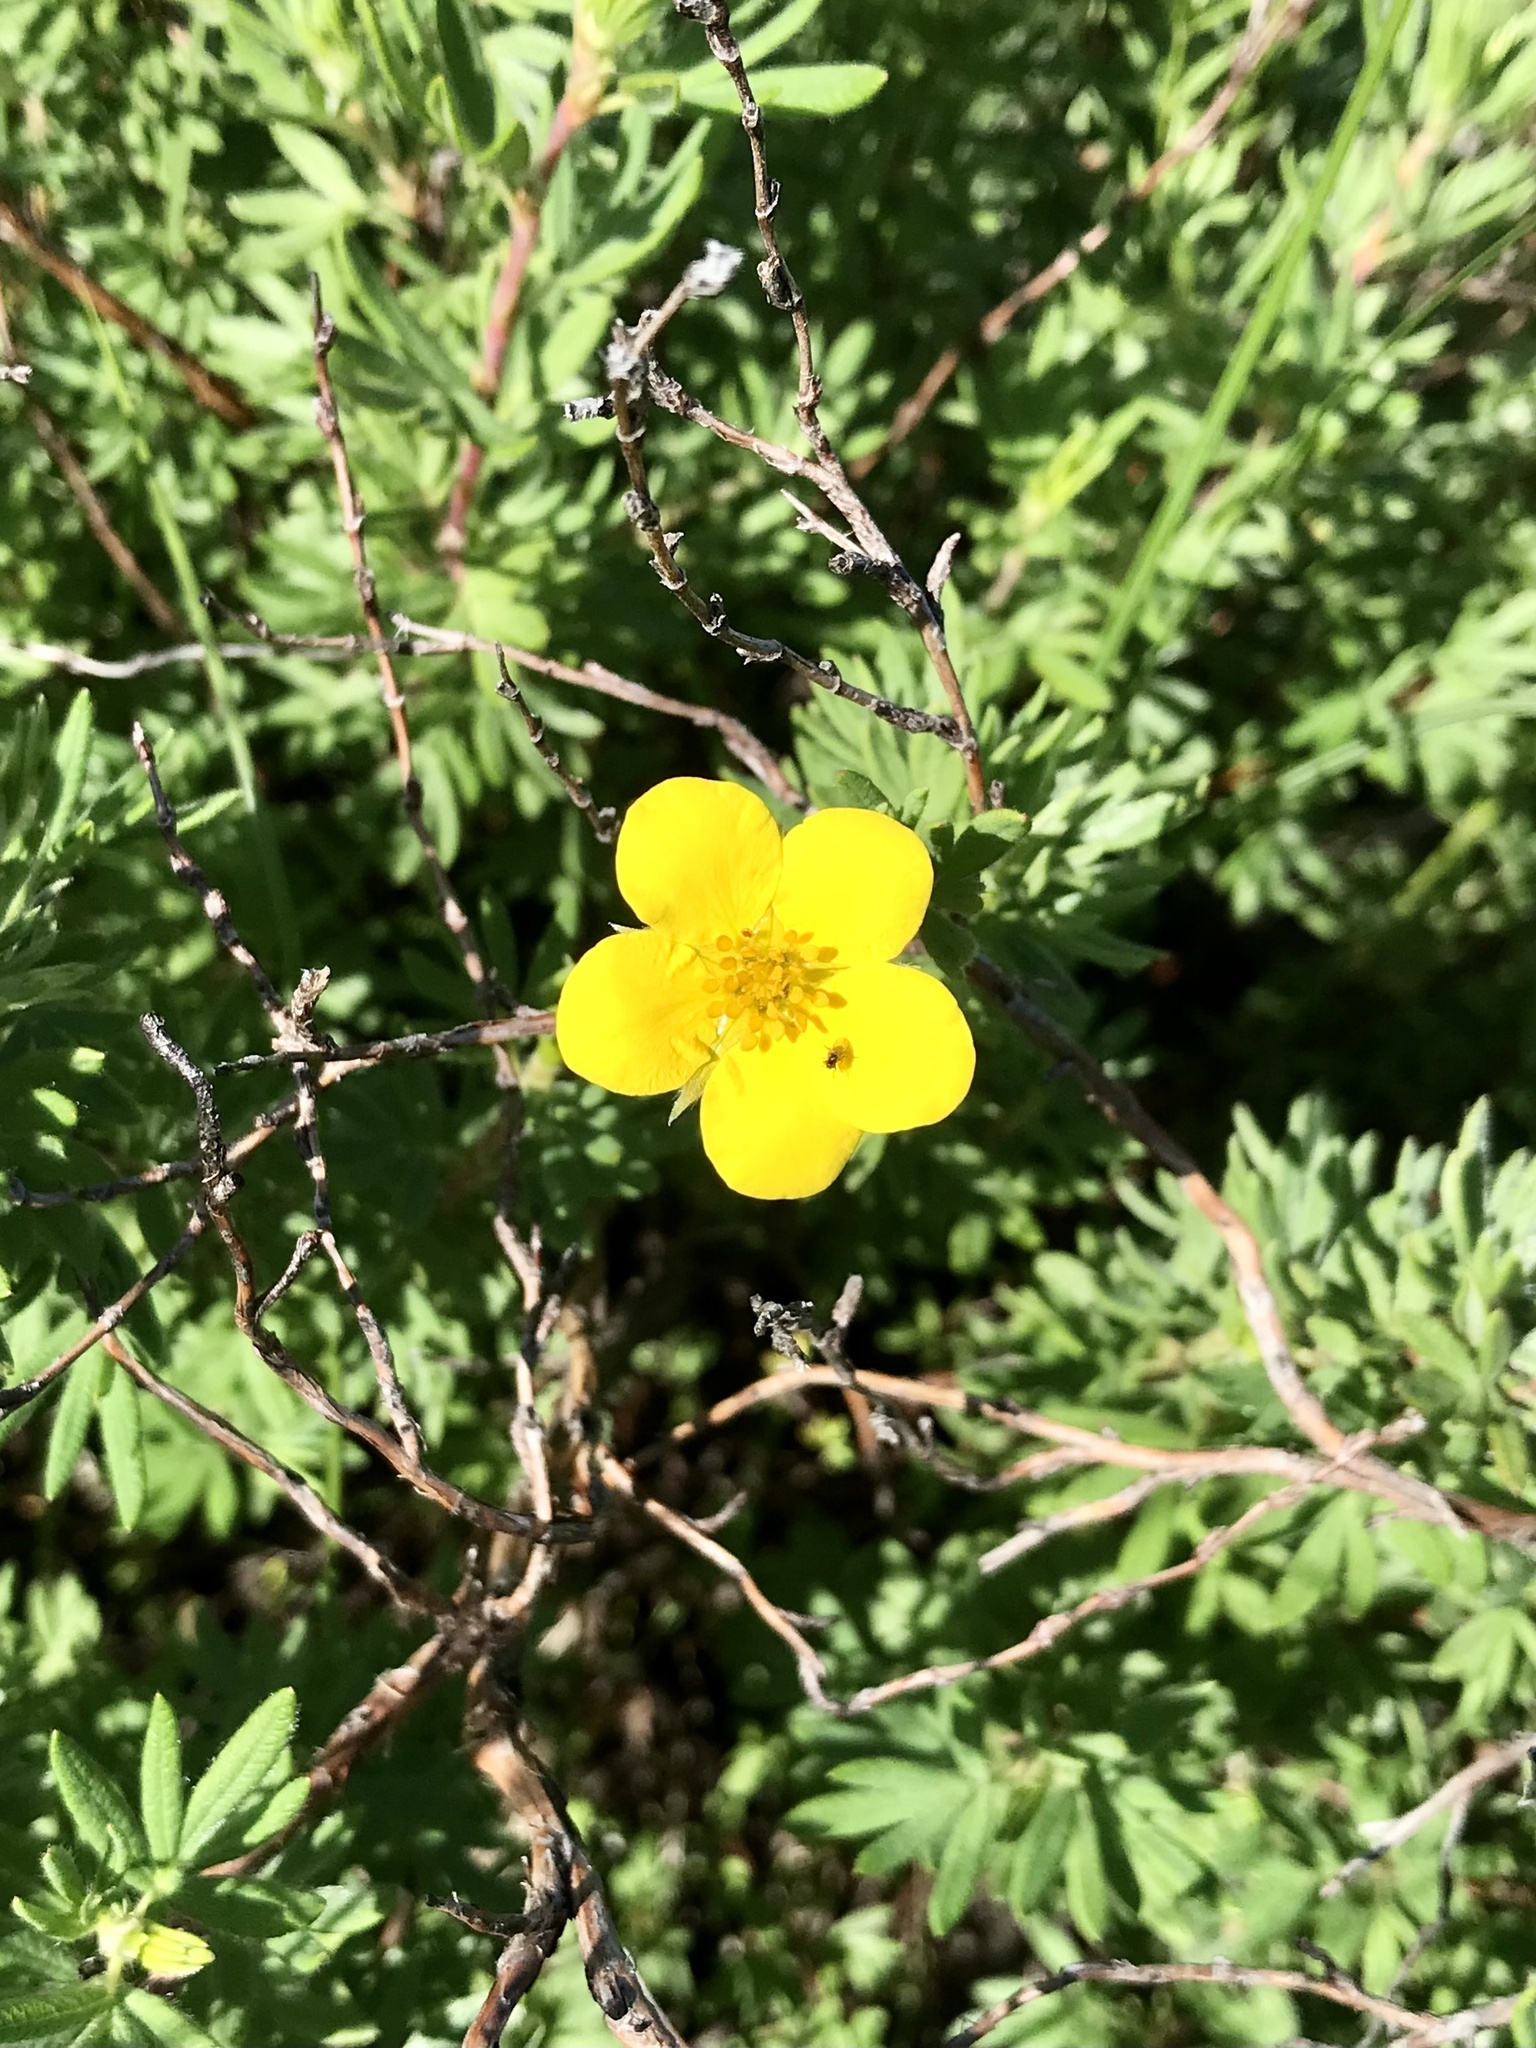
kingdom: Plantae
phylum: Tracheophyta
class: Magnoliopsida
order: Rosales
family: Rosaceae
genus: Dasiphora
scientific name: Dasiphora fruticosa
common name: Shrubby cinquefoil
